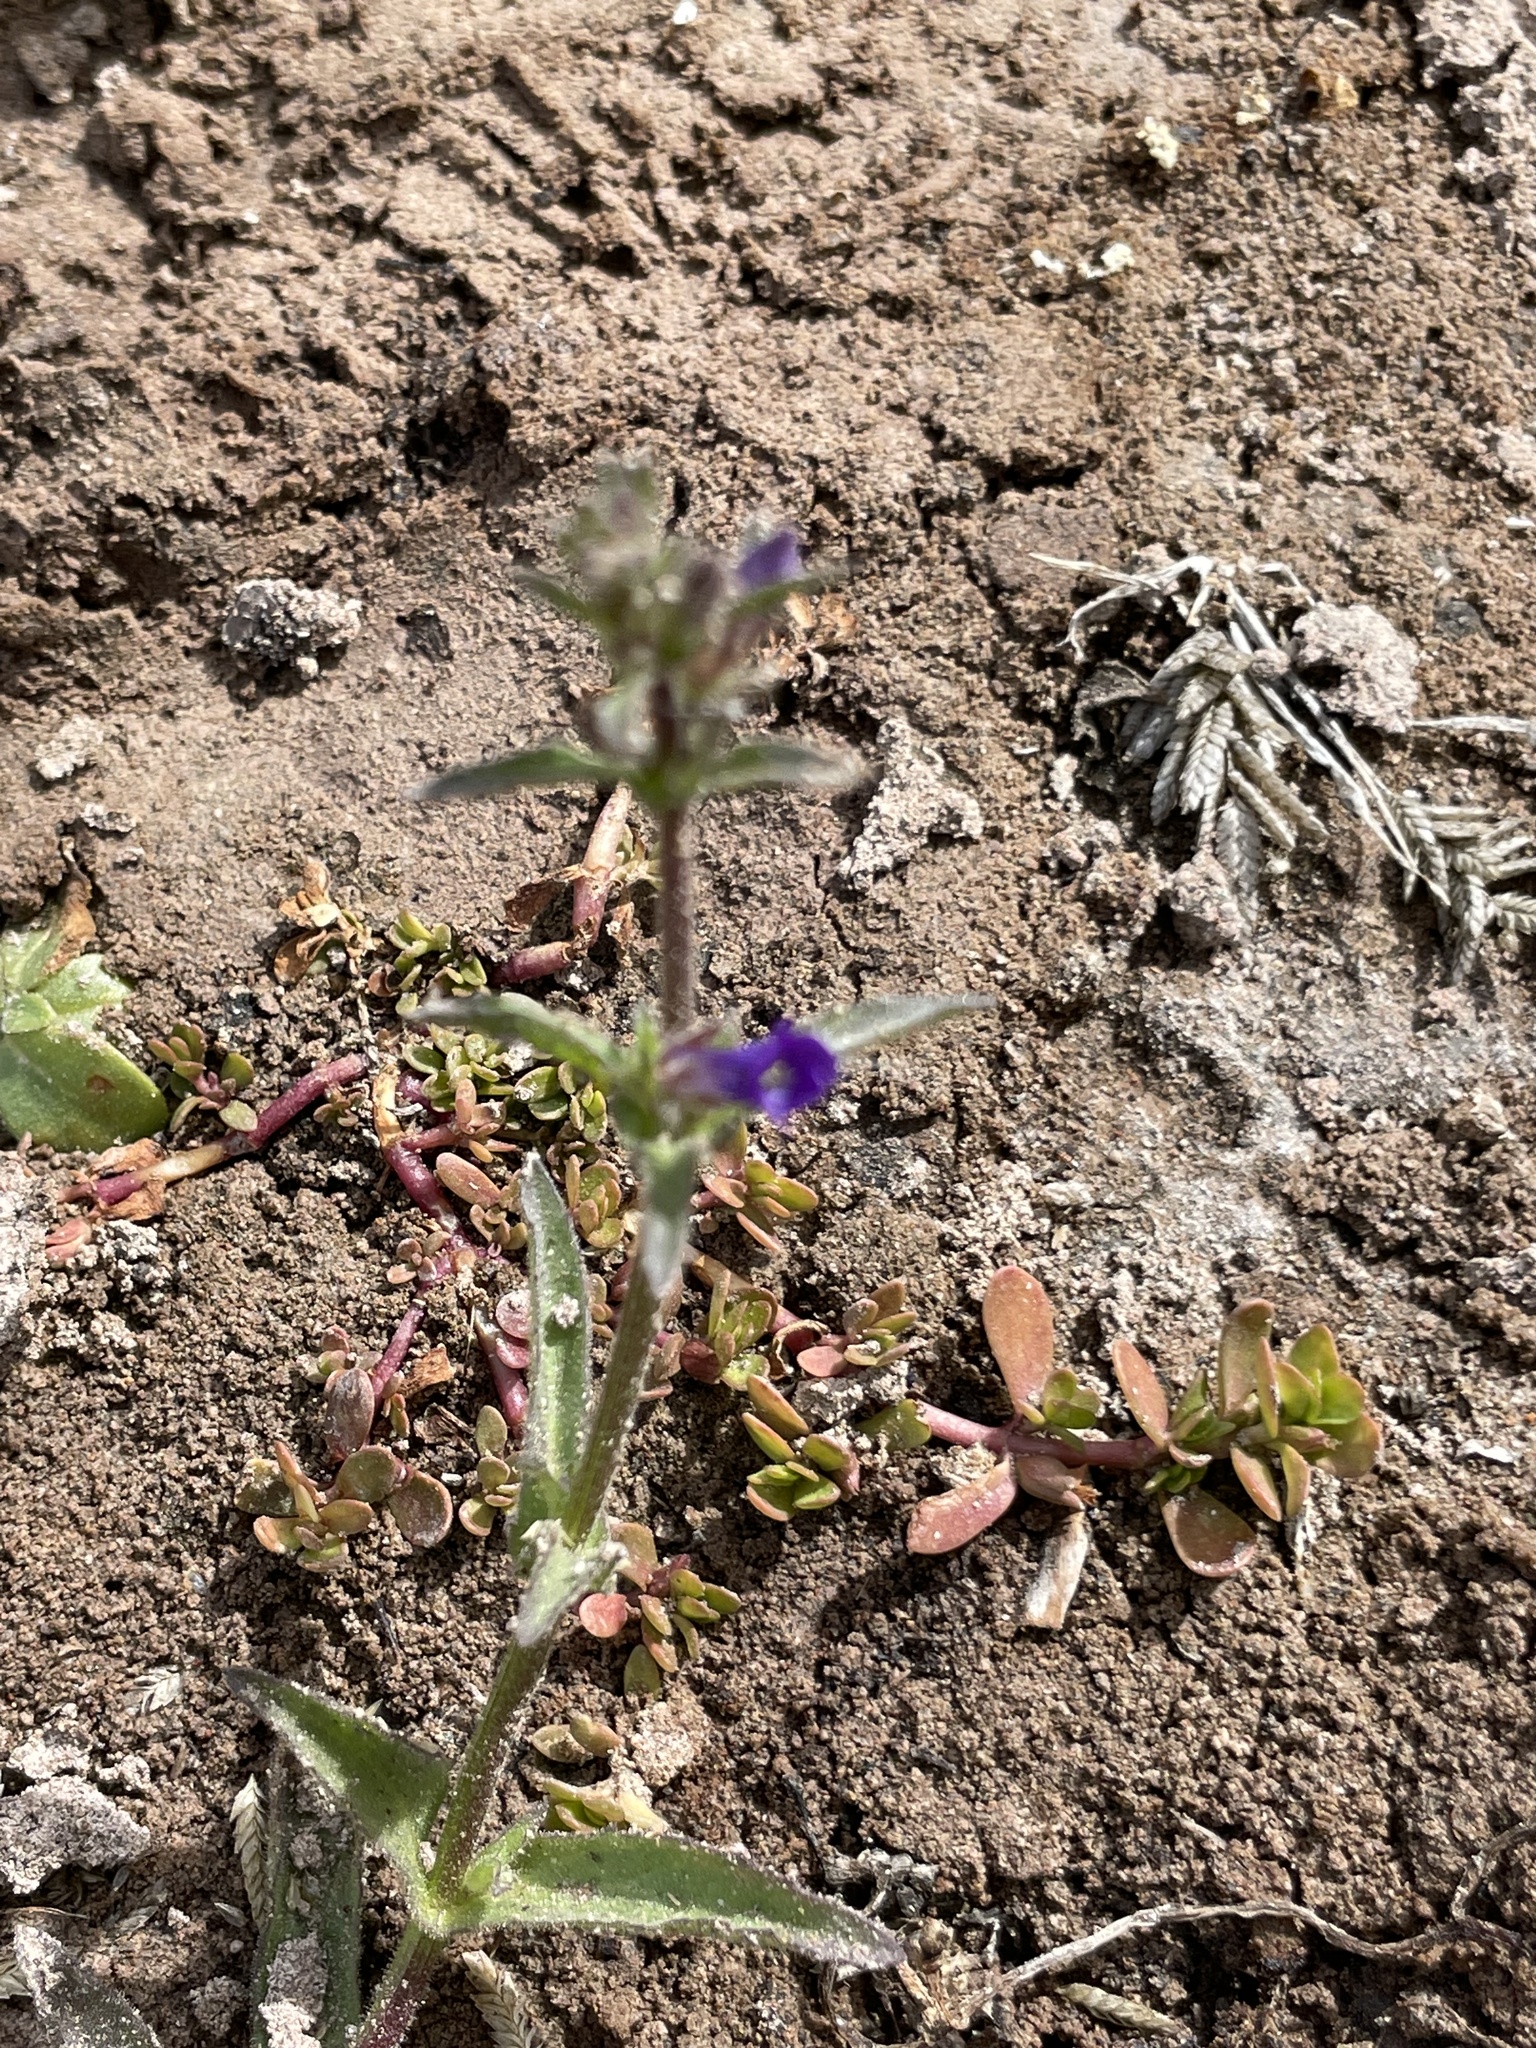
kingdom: Plantae
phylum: Tracheophyta
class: Magnoliopsida
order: Lamiales
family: Plantaginaceae
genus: Stemodia
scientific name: Stemodia durantifolia
